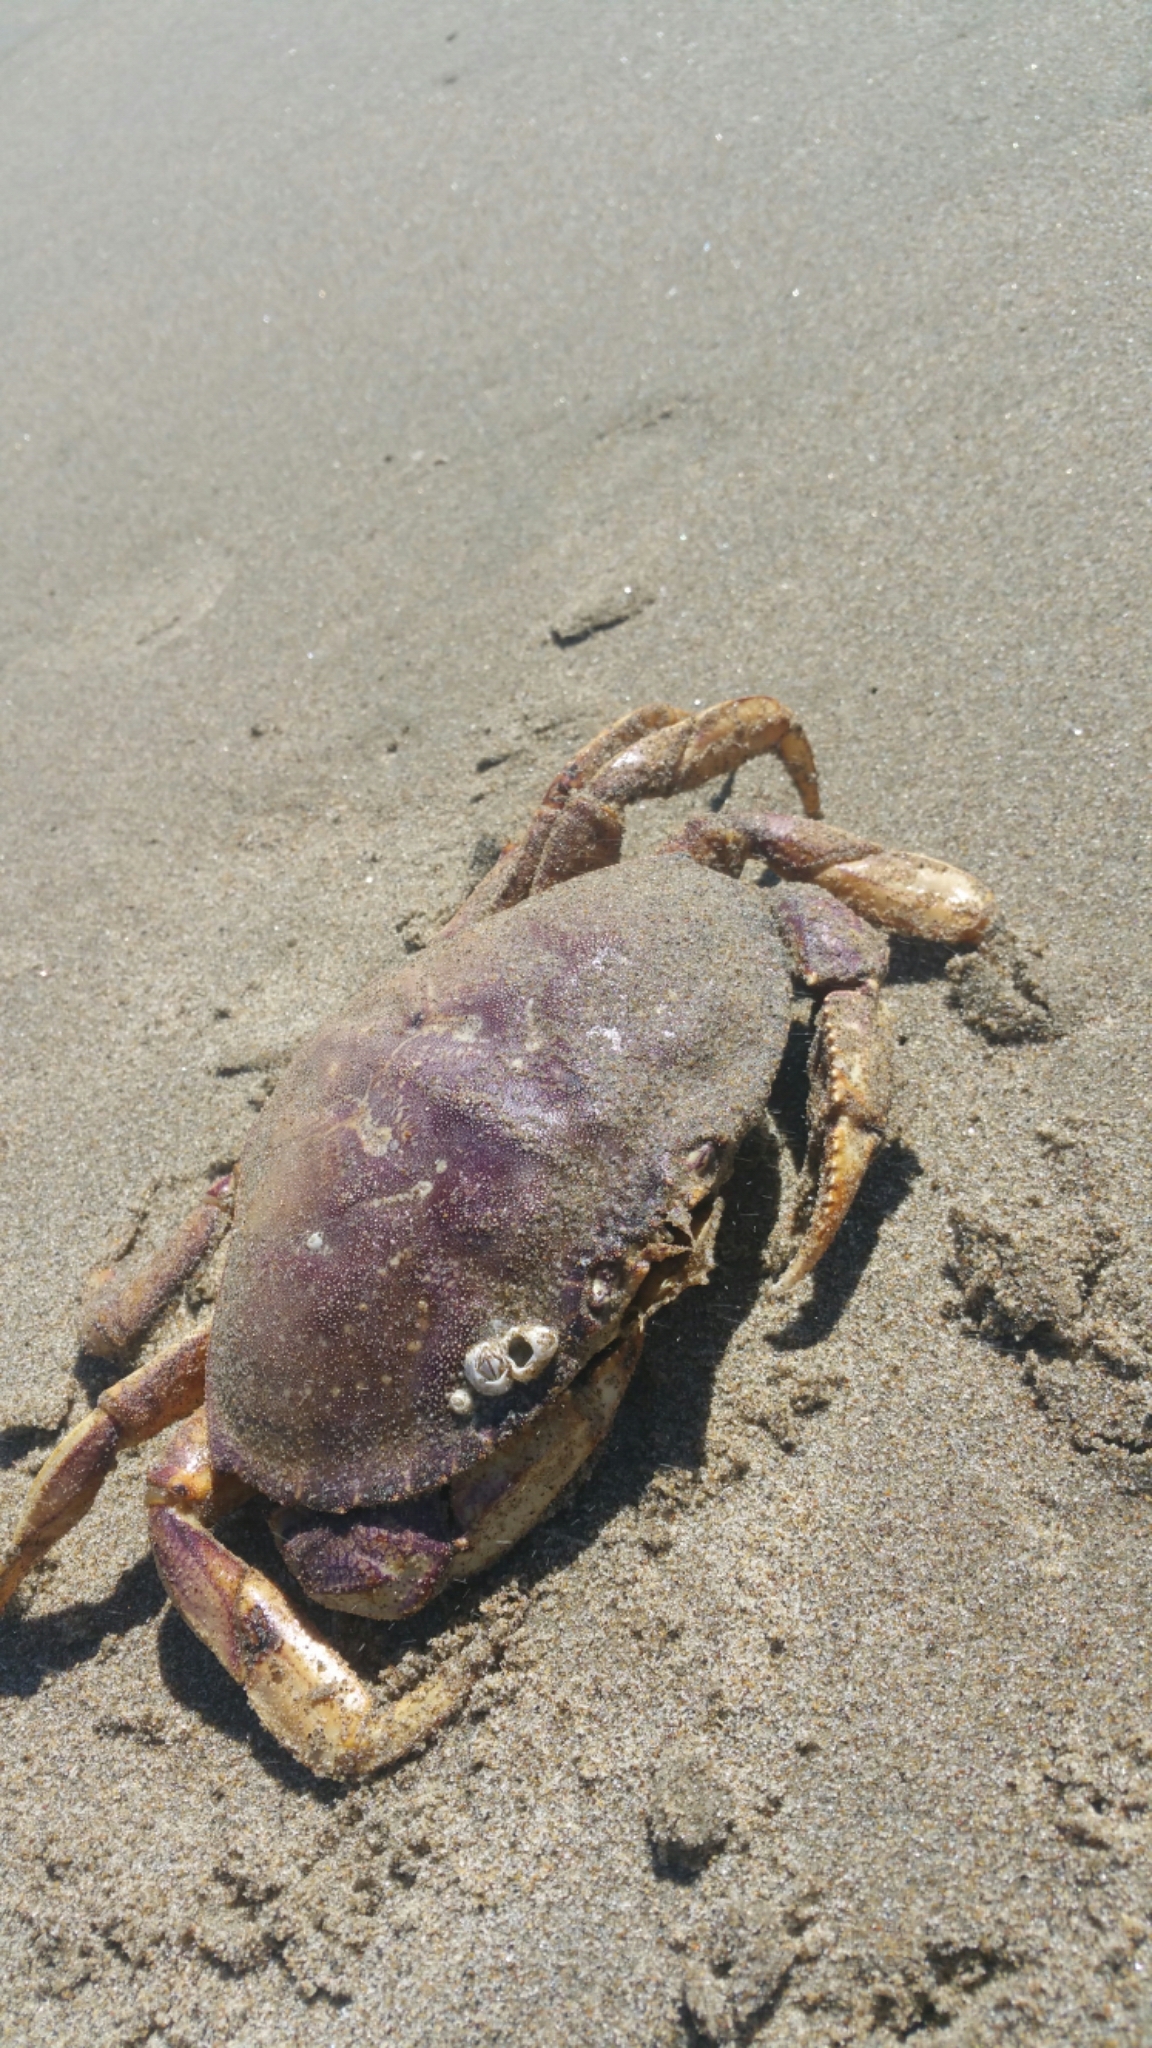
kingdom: Animalia
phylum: Arthropoda
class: Malacostraca
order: Decapoda
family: Cancridae
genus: Metacarcinus
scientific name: Metacarcinus magister
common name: Californian crab
